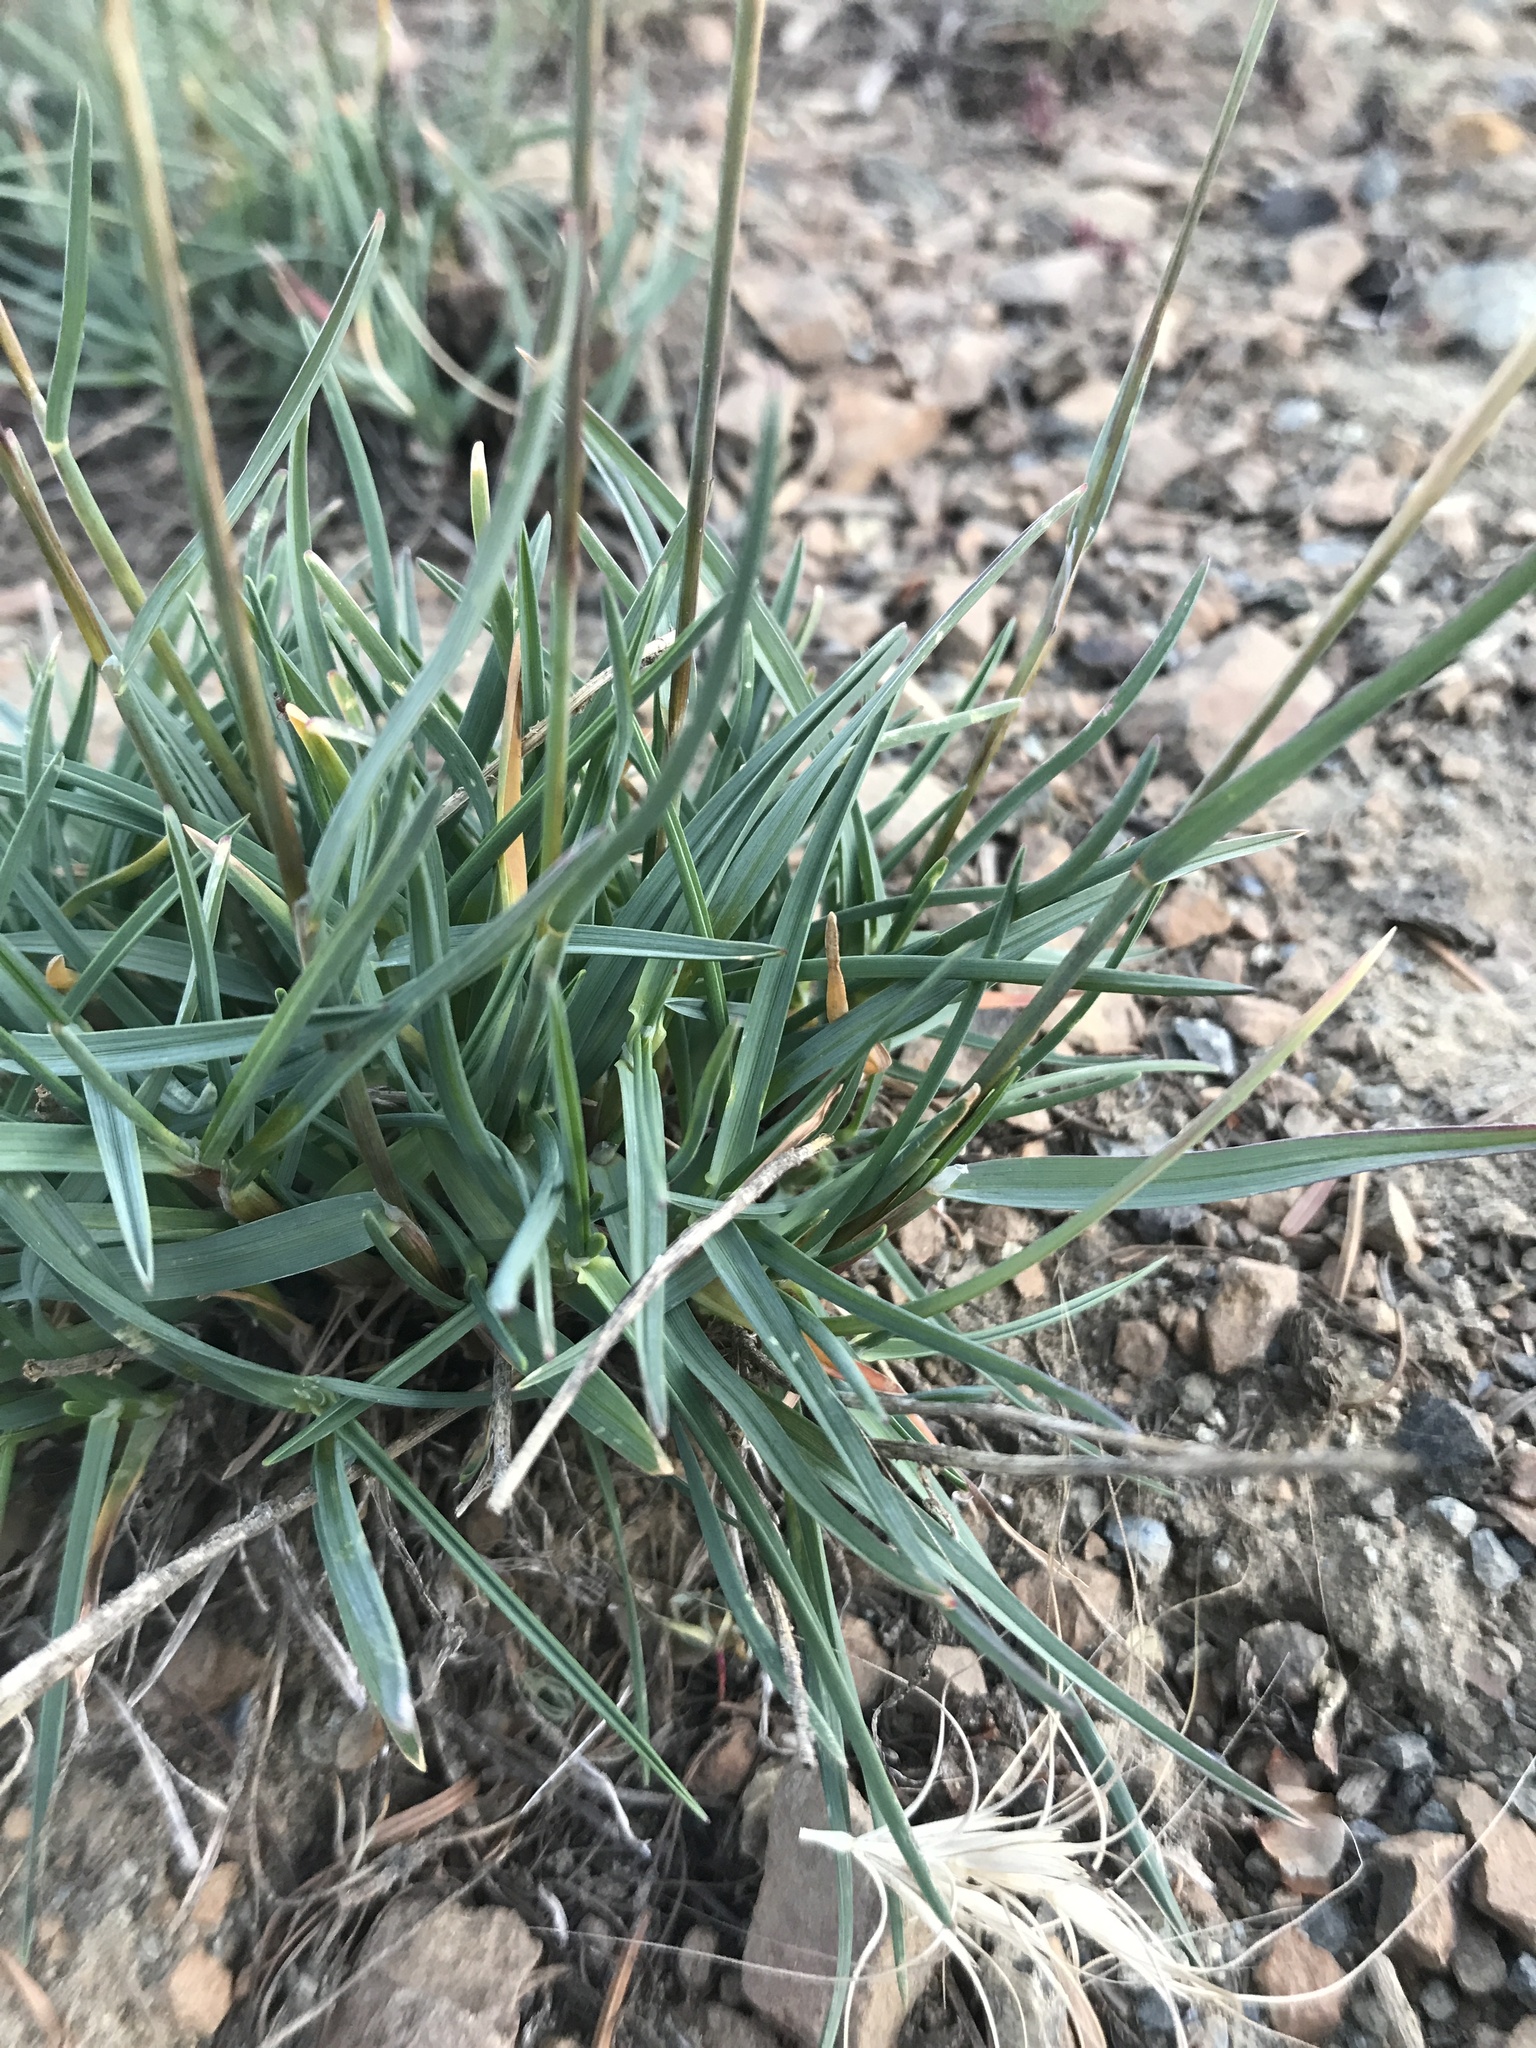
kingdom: Plantae
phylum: Tracheophyta
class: Liliopsida
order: Poales
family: Poaceae
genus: Poa
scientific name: Poa curtifolia
